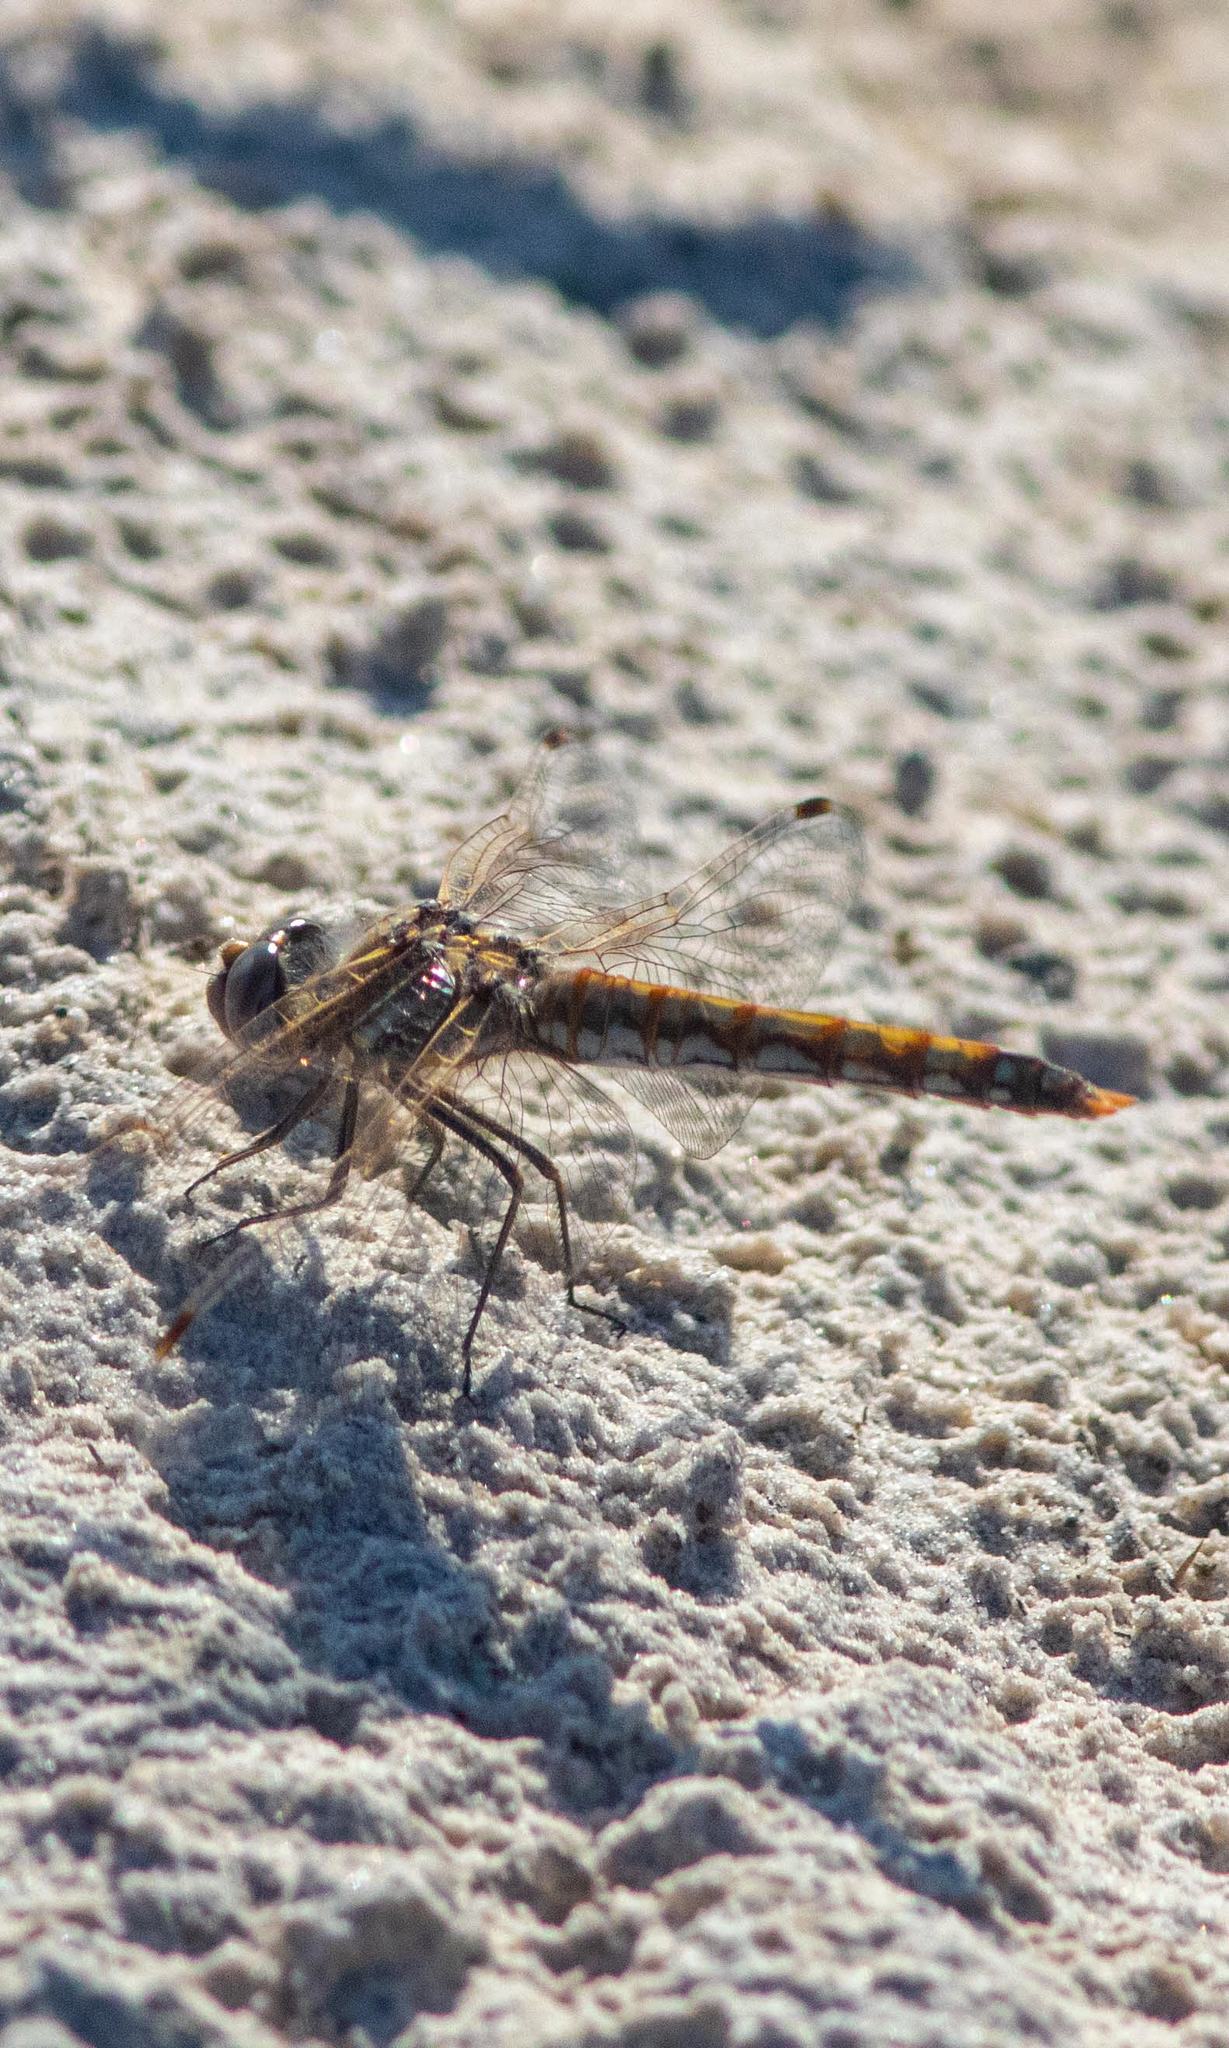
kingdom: Animalia
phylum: Arthropoda
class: Insecta
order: Odonata
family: Libellulidae
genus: Sympetrum
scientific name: Sympetrum corruptum
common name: Variegated meadowhawk
